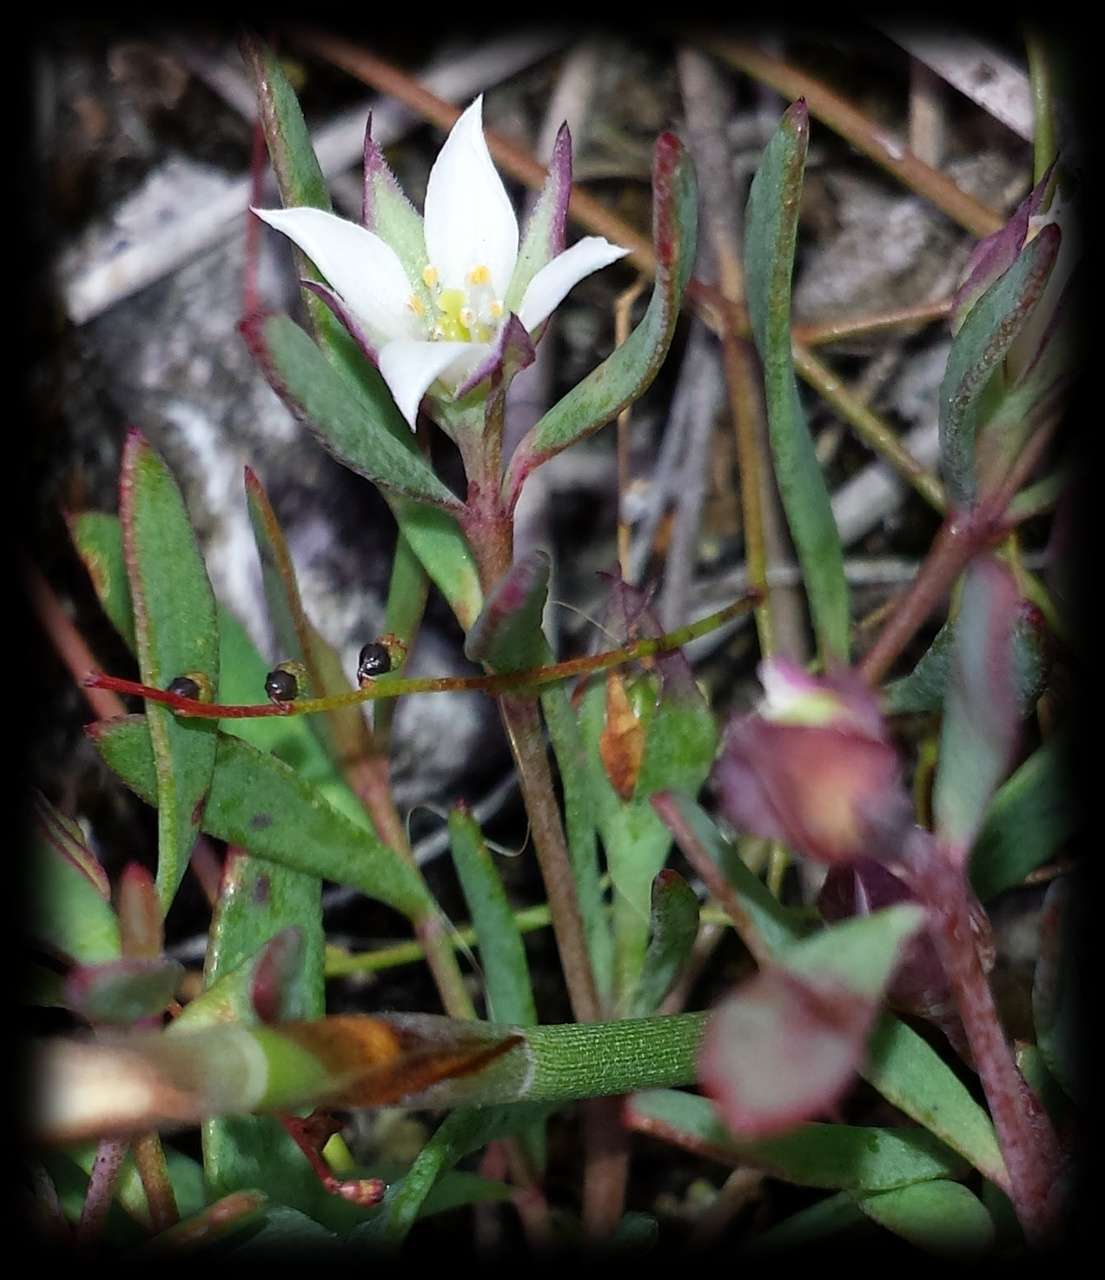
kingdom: Plantae
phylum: Tracheophyta
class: Magnoliopsida
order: Sapindales
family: Rutaceae
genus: Boronia
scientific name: Boronia parviflora
